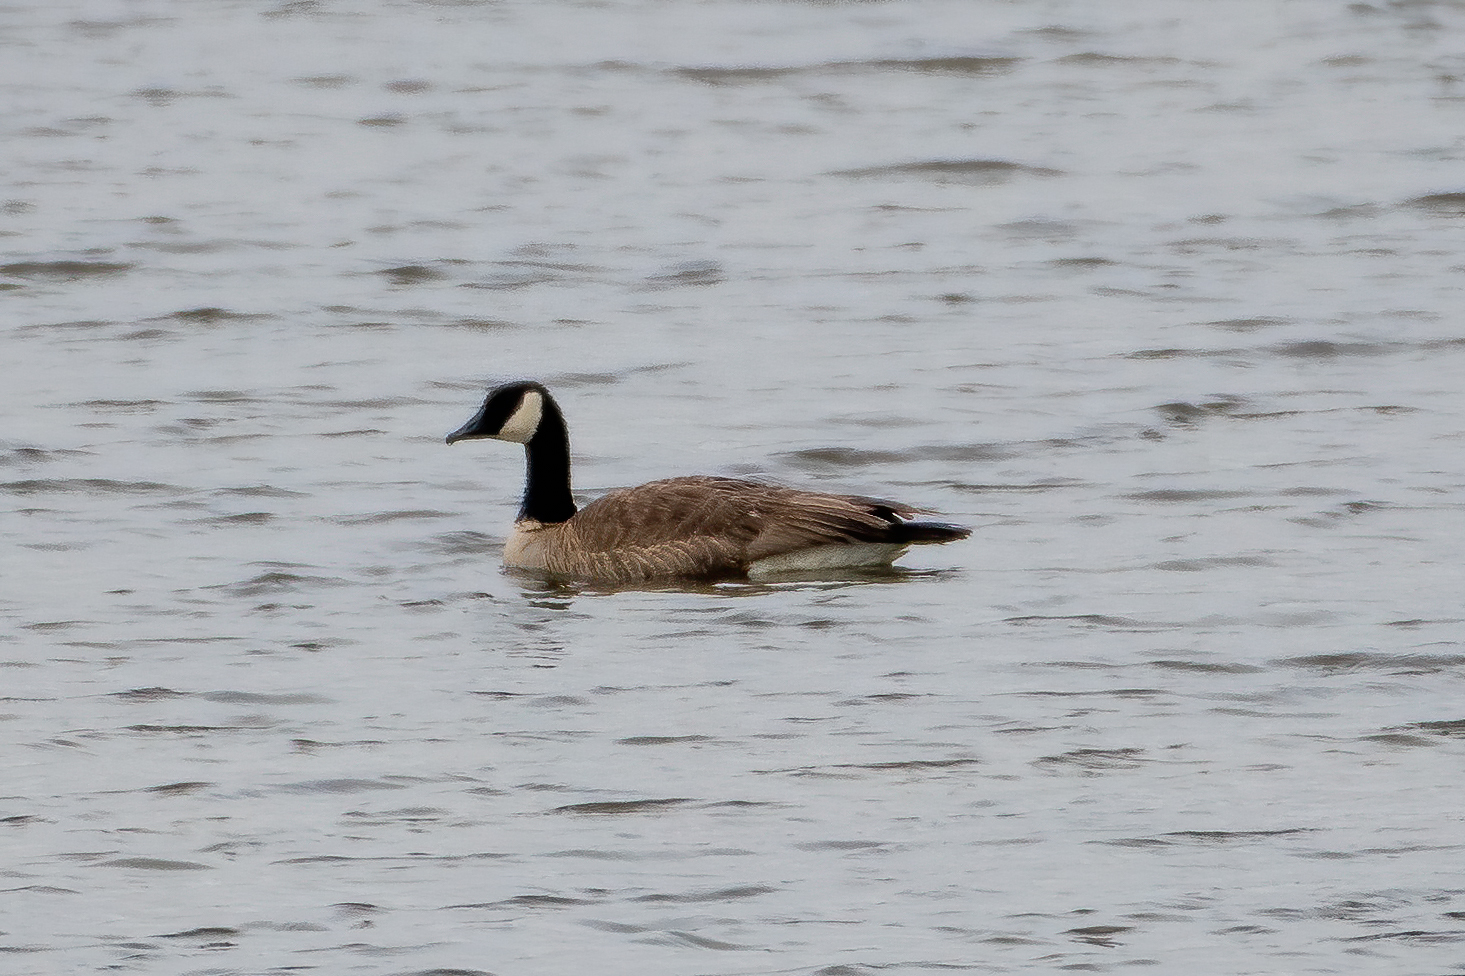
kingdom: Animalia
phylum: Chordata
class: Aves
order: Anseriformes
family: Anatidae
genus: Branta
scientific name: Branta canadensis
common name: Canada goose
